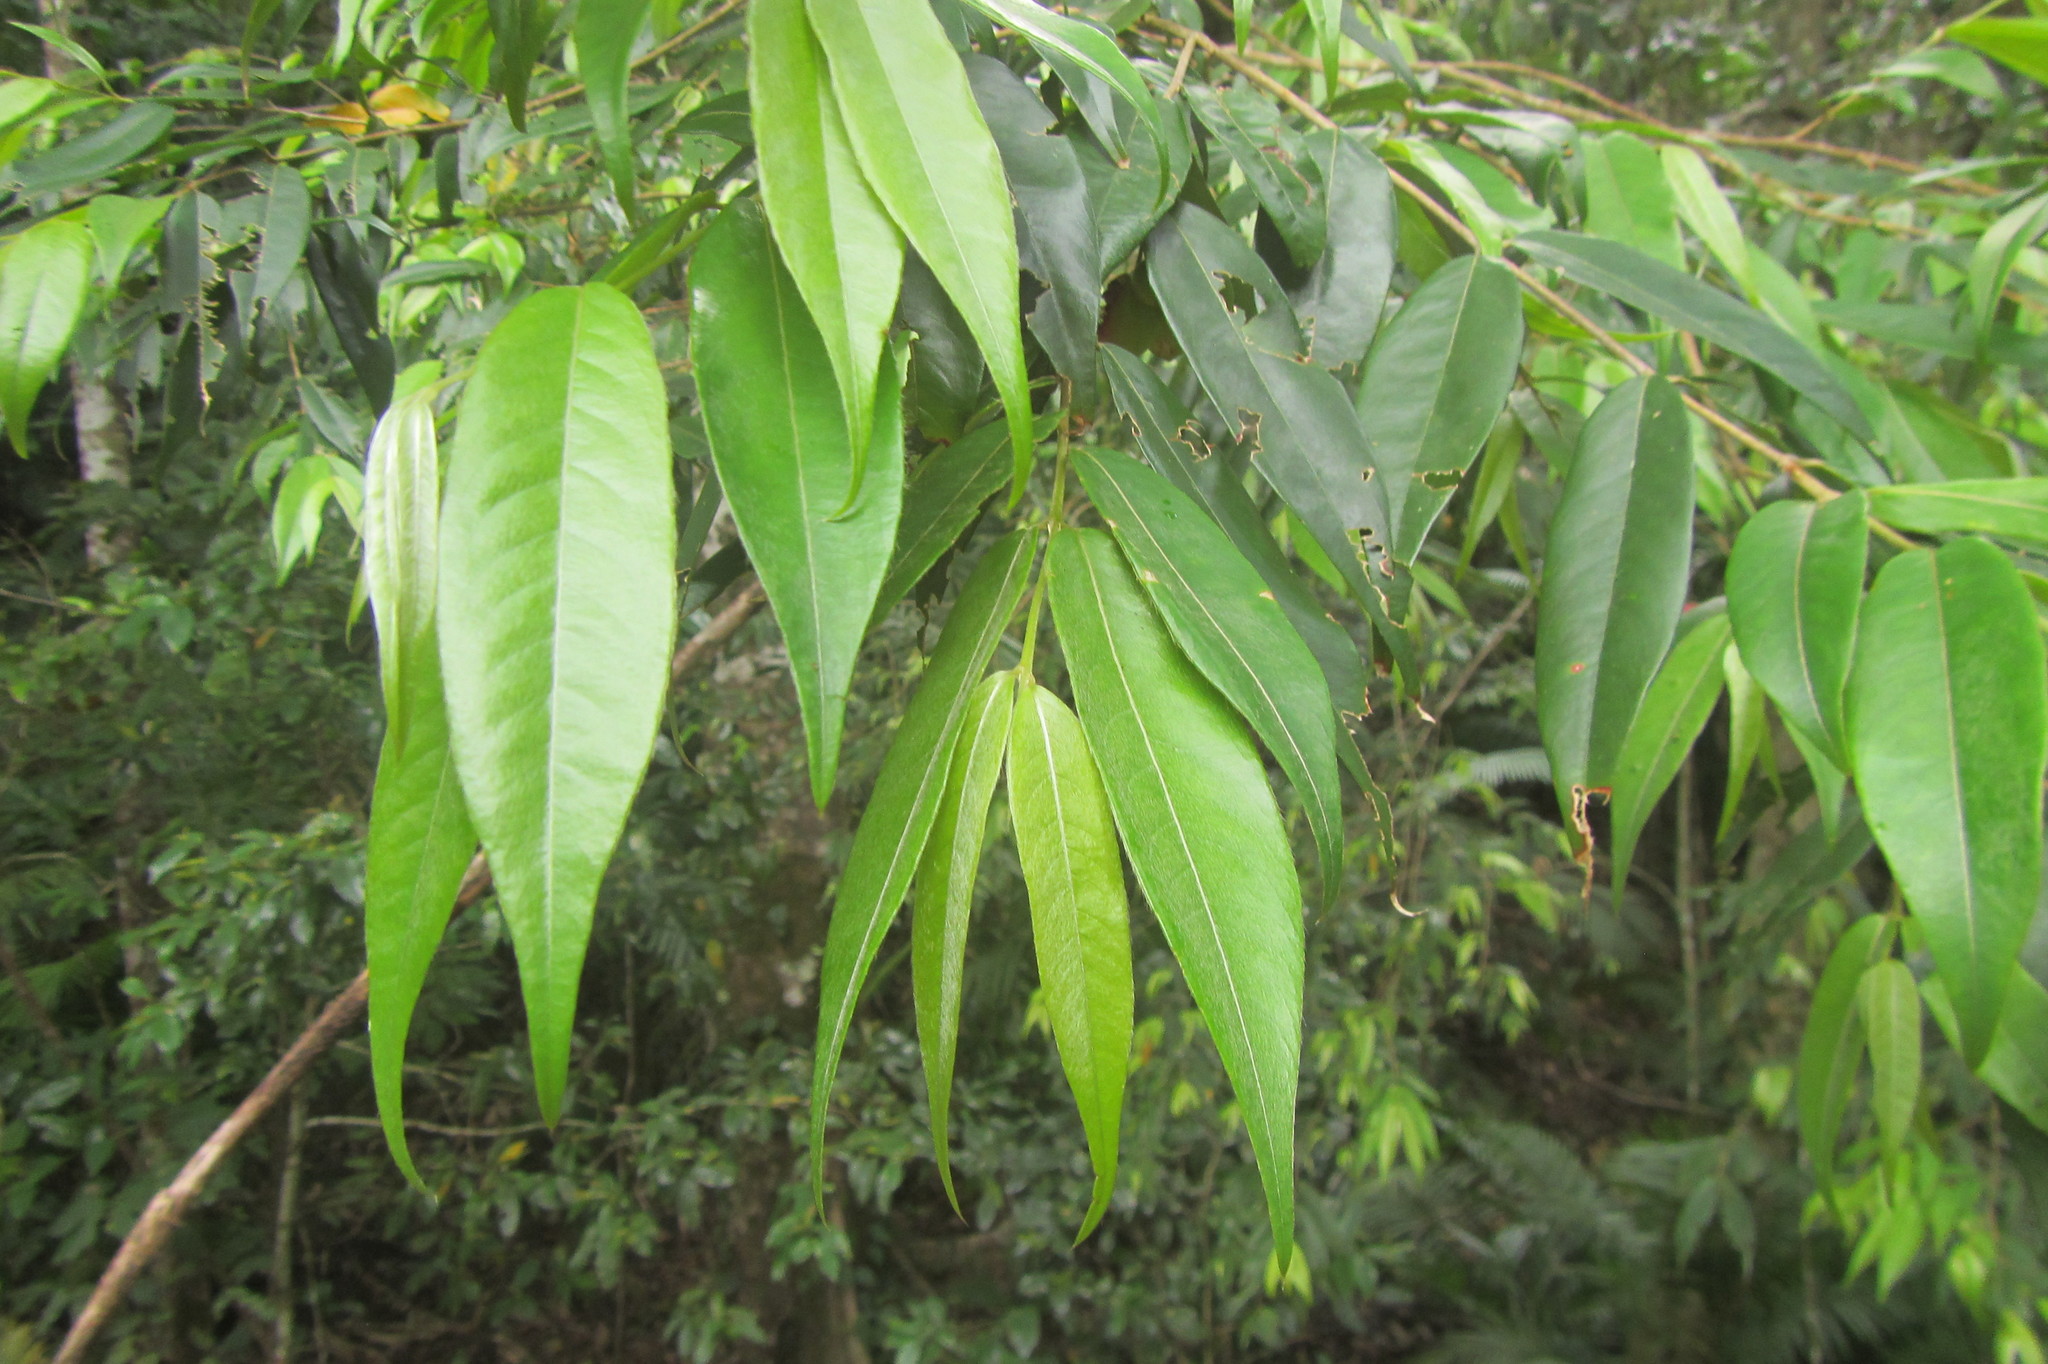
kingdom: Plantae
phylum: Tracheophyta
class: Magnoliopsida
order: Oxalidales
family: Elaeocarpaceae
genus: Aceratium
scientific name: Aceratium megalospermum
